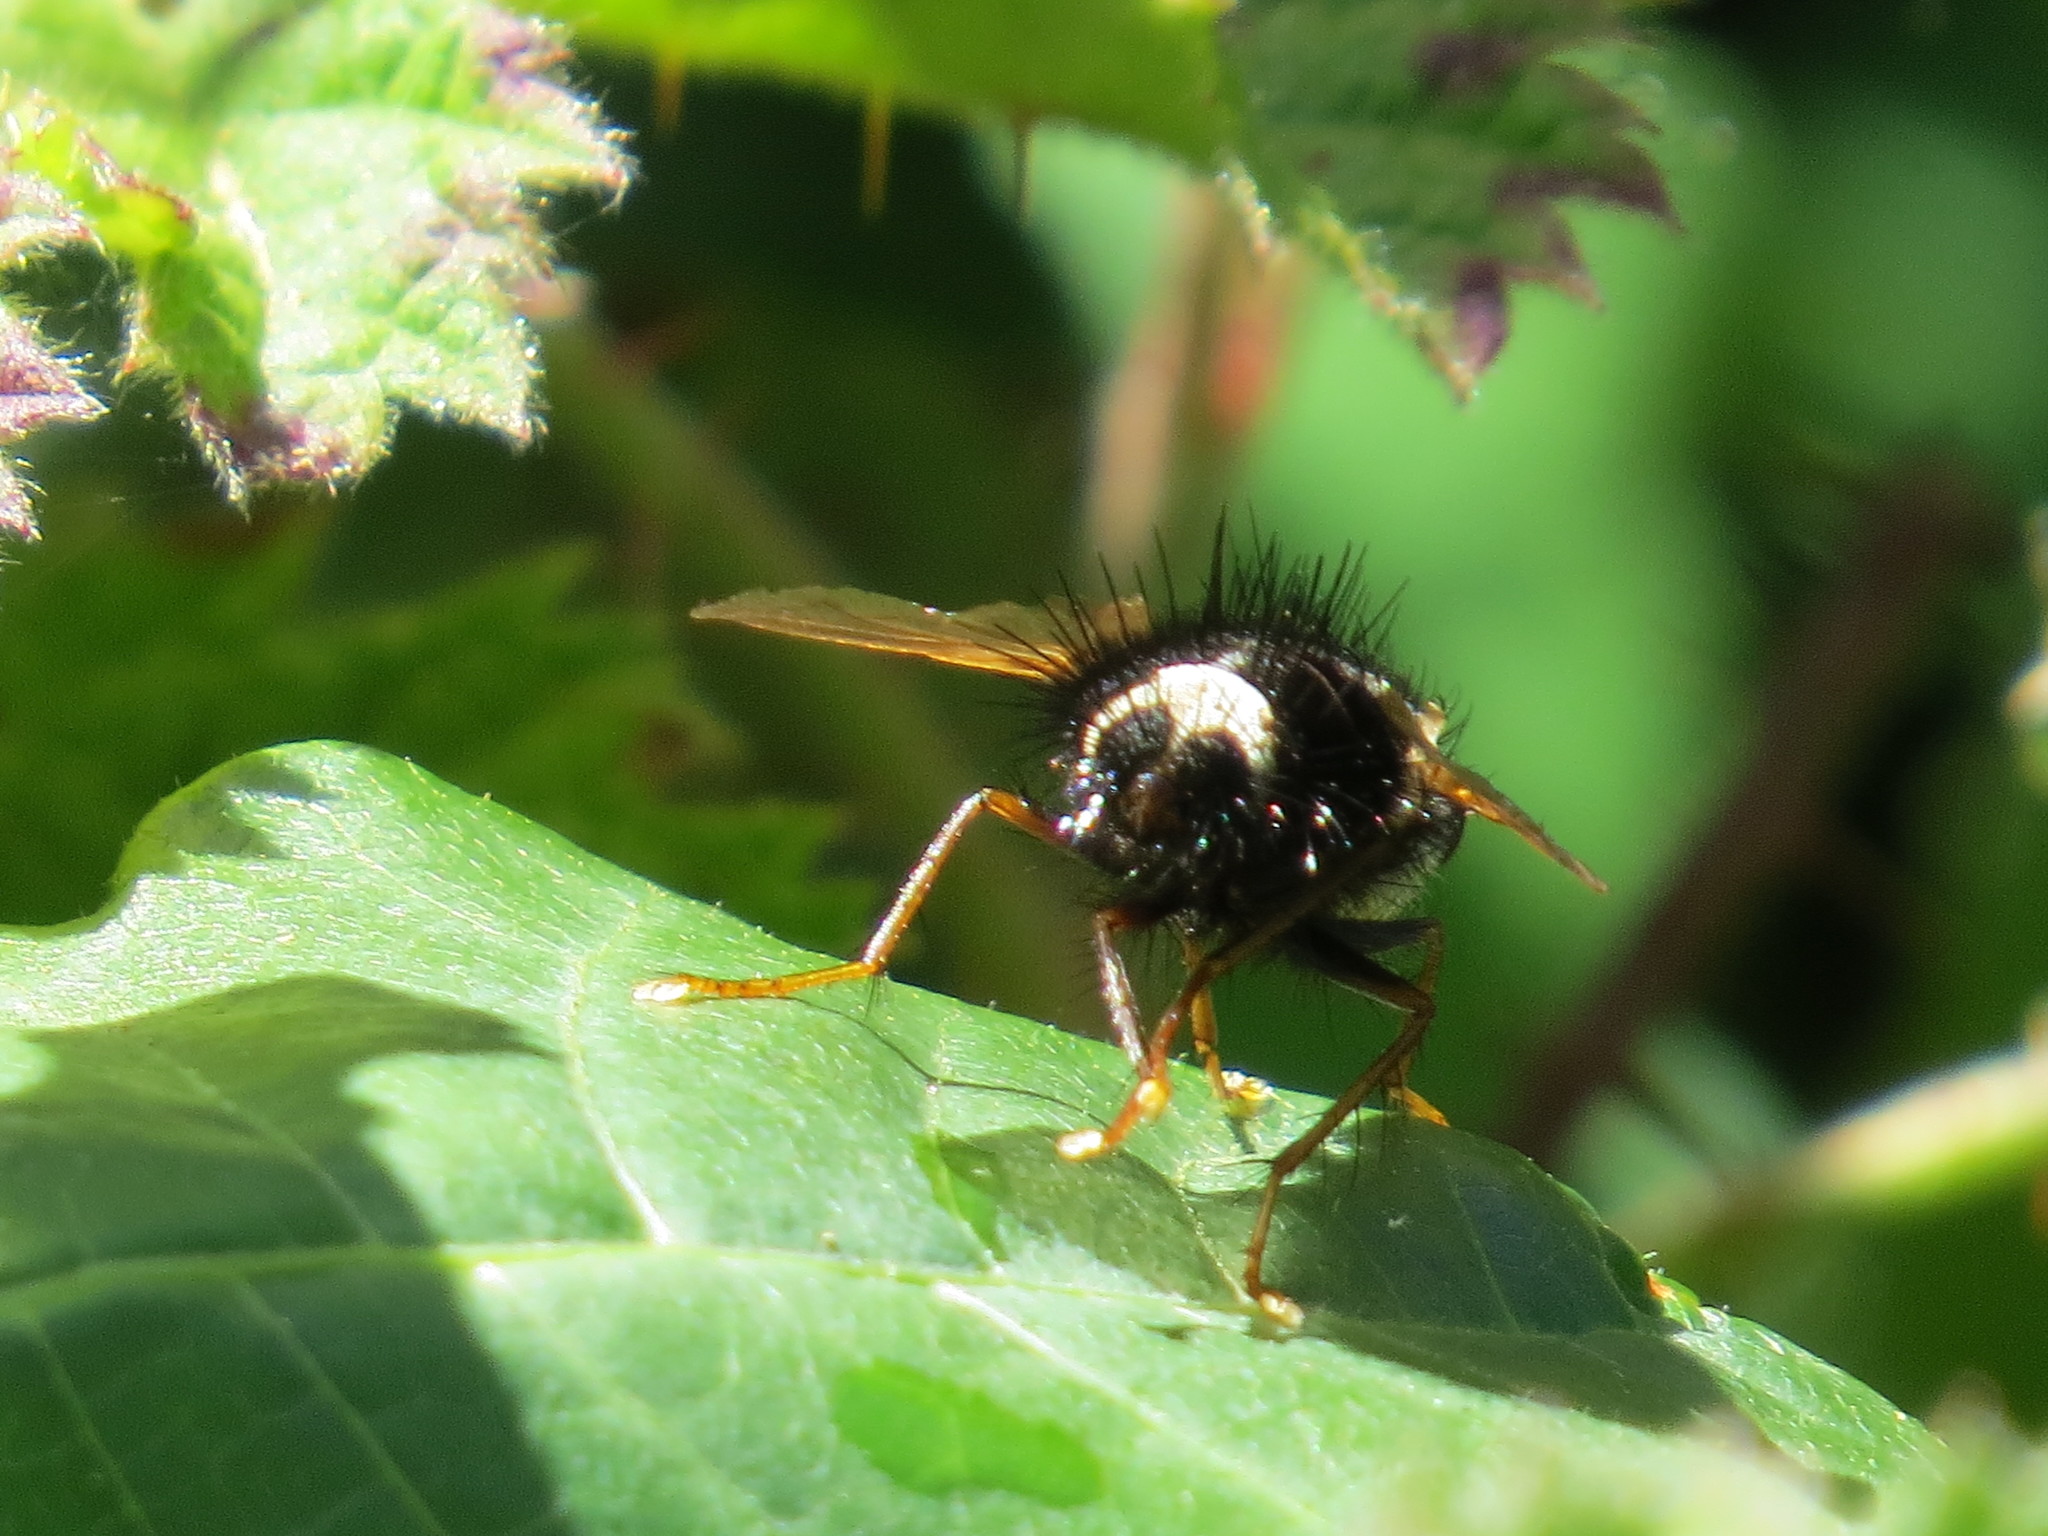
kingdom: Animalia
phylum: Arthropoda
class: Insecta
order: Diptera
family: Tachinidae
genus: Epalpus
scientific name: Epalpus signifer
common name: Early tachinid fly
